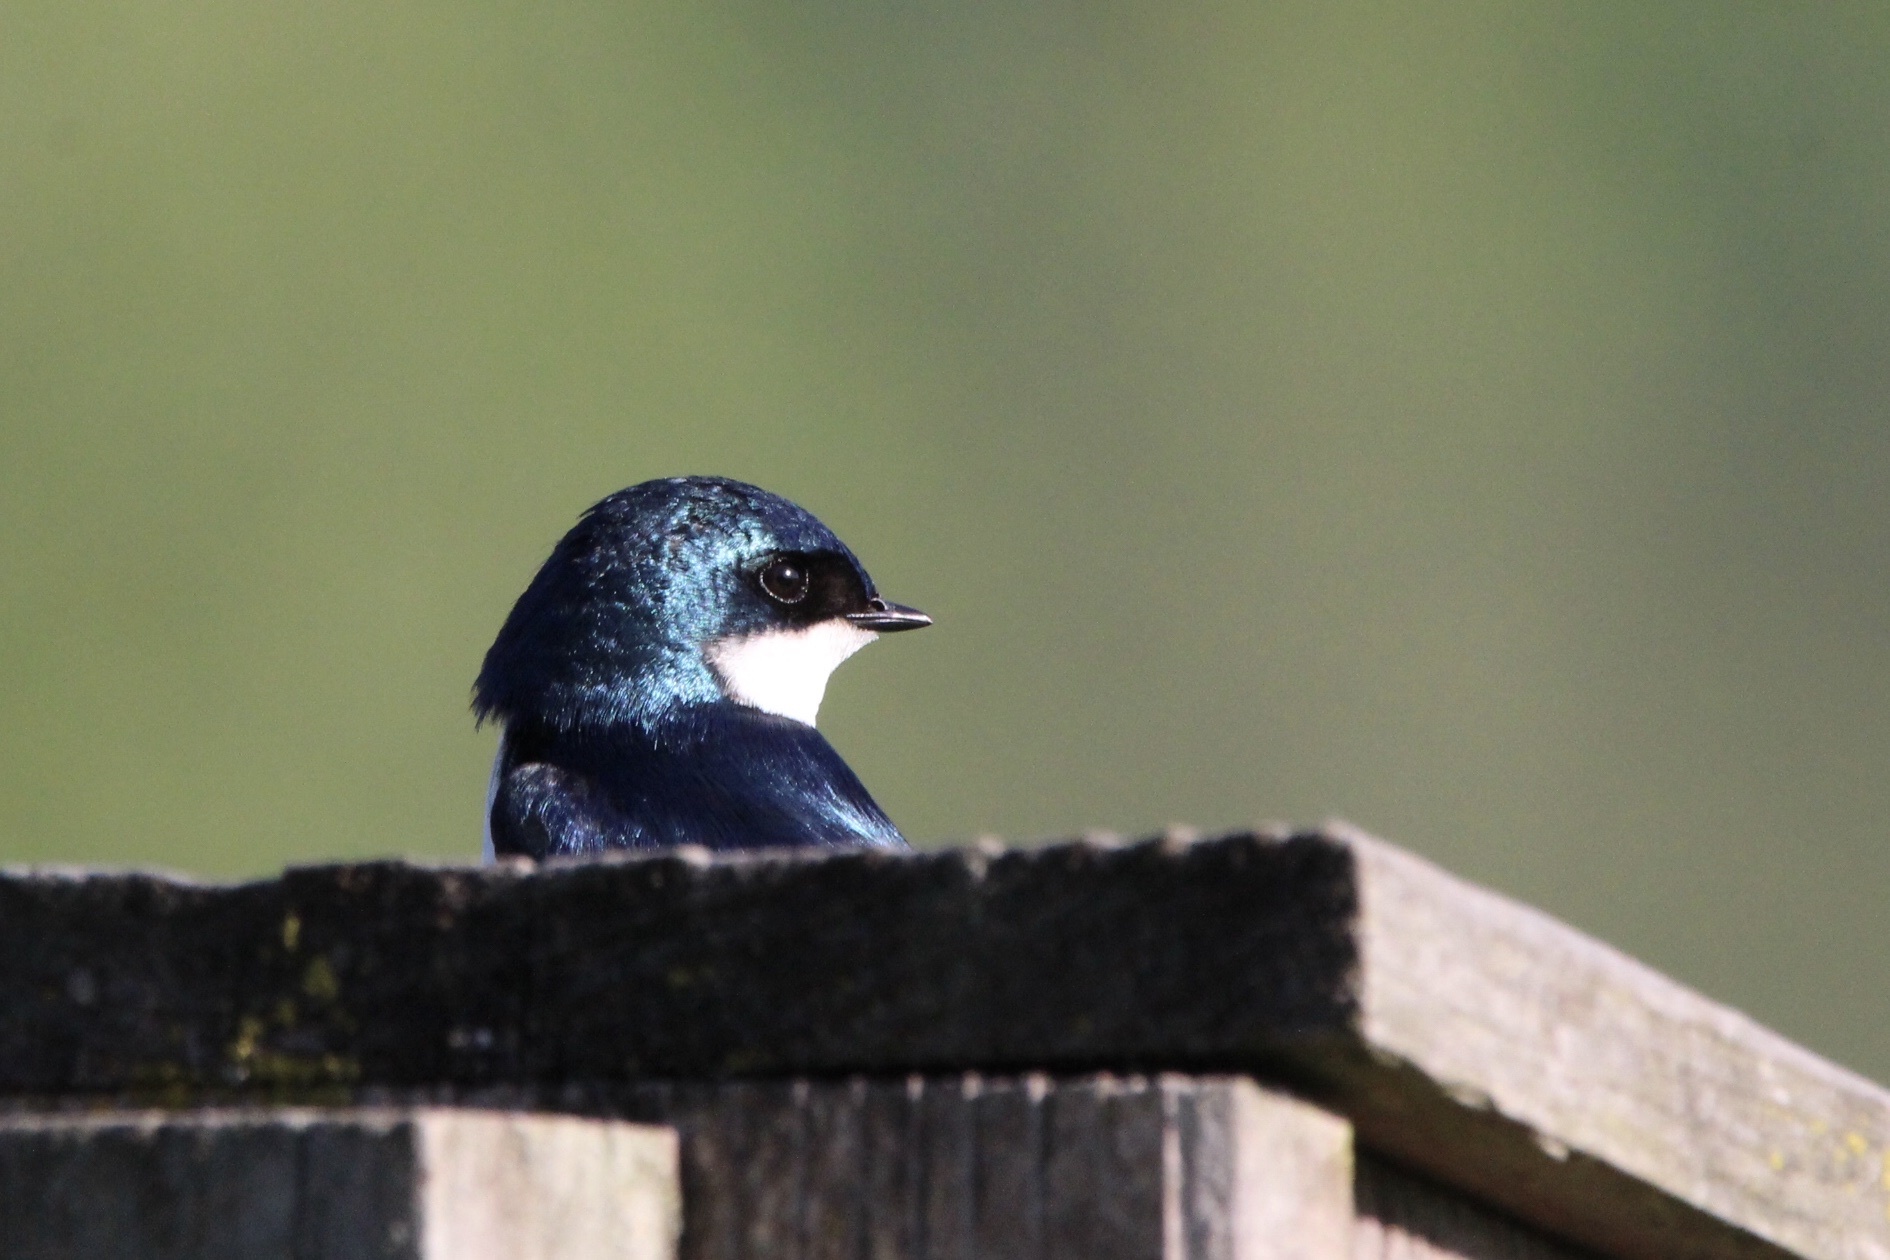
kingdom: Animalia
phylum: Chordata
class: Aves
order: Passeriformes
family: Hirundinidae
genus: Tachycineta
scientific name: Tachycineta bicolor
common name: Tree swallow
